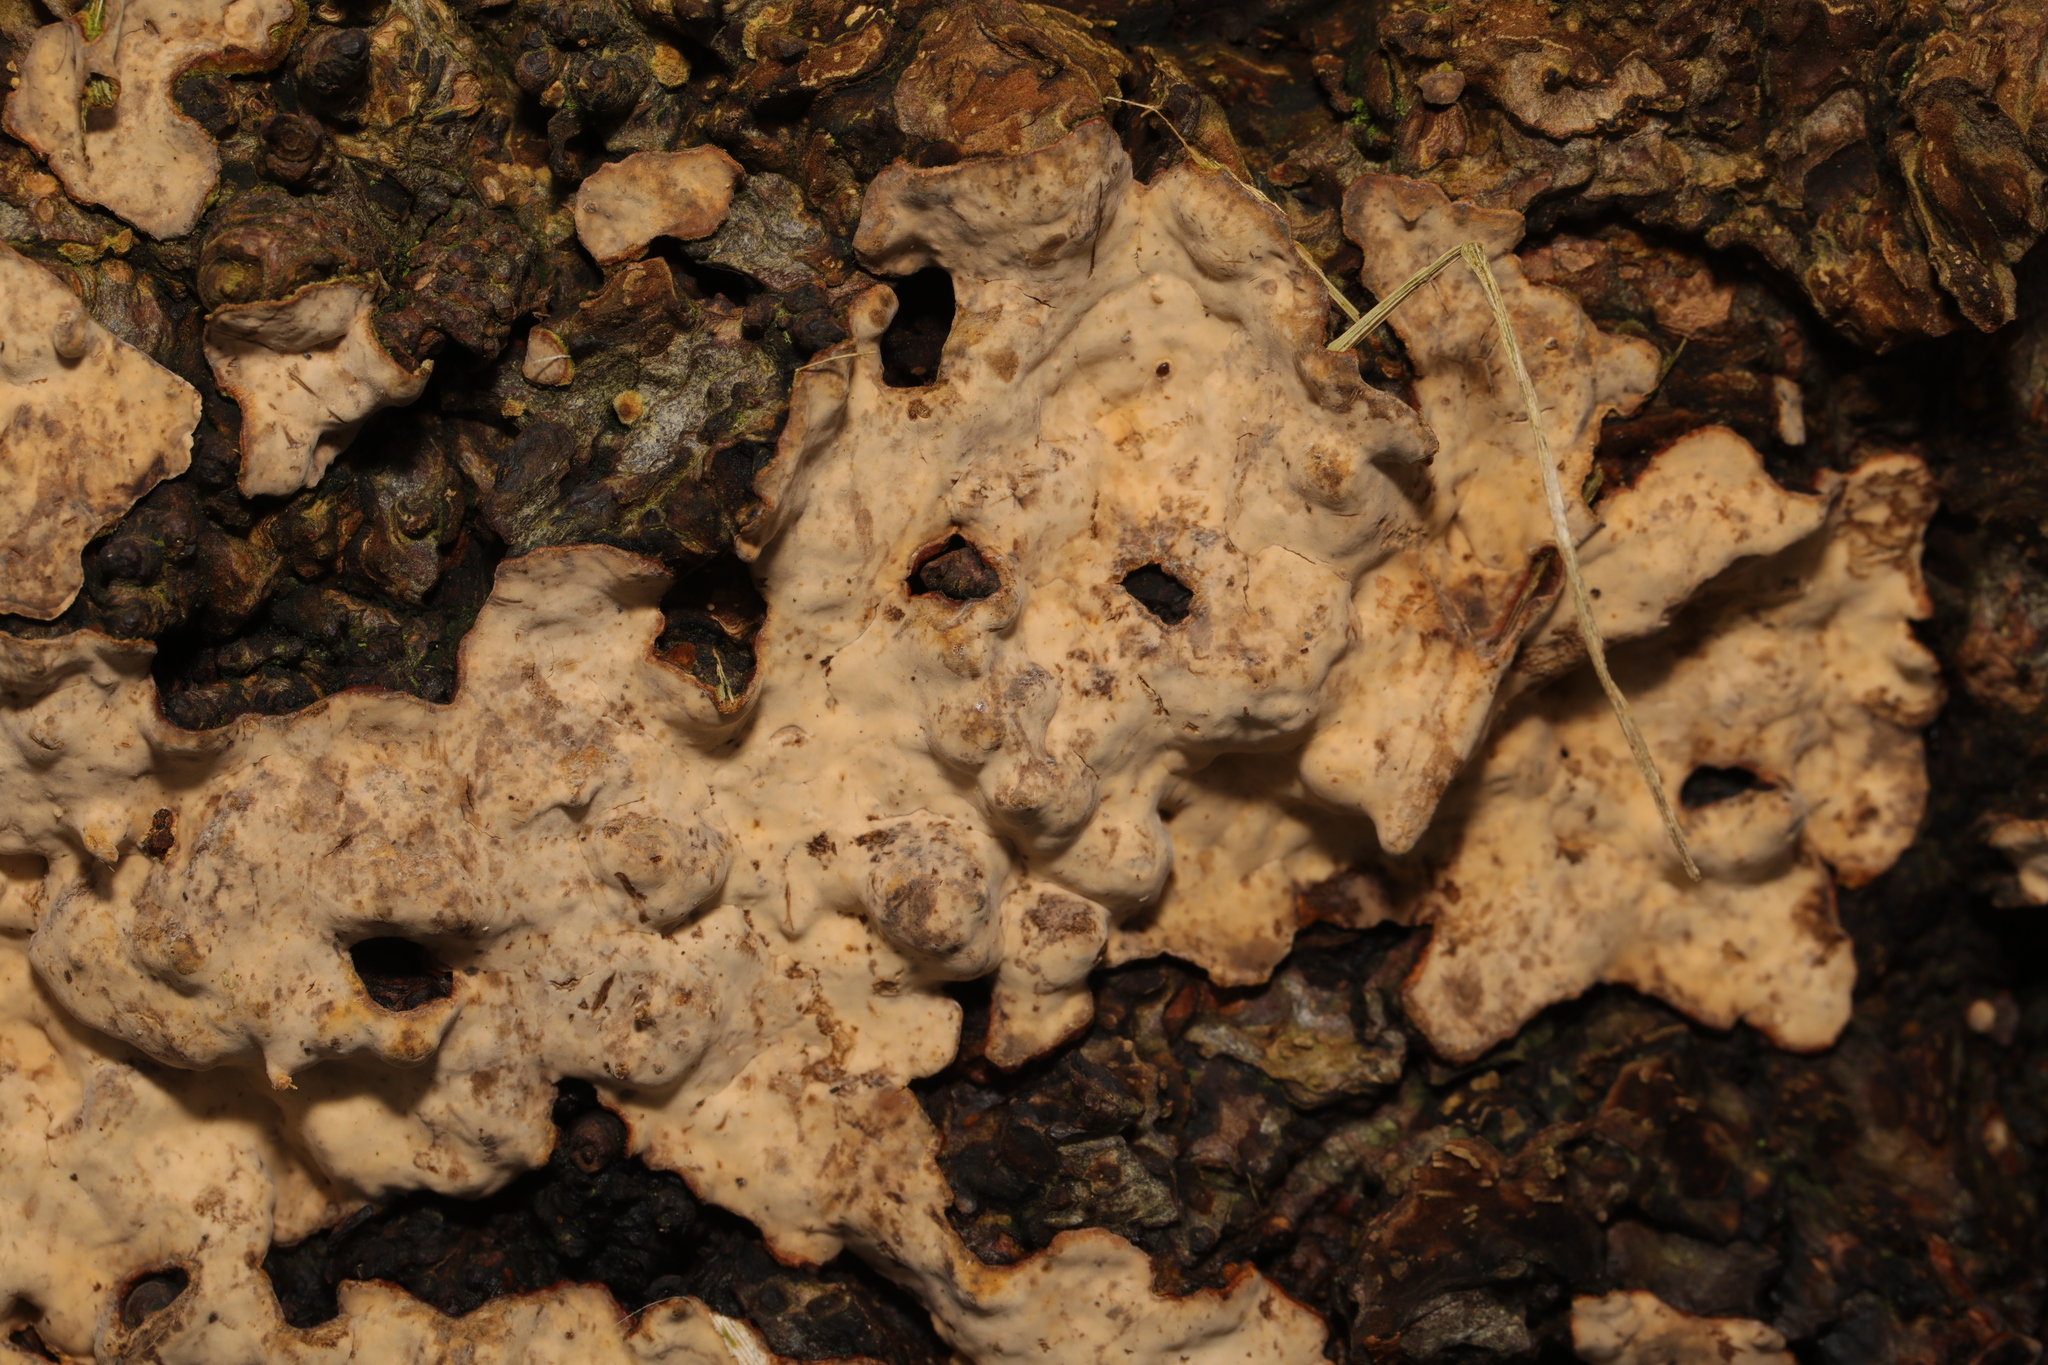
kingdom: Fungi
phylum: Basidiomycota
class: Agaricomycetes
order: Russulales
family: Stereaceae
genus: Stereum
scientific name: Stereum rugosum
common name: Bleeding broadleaf crust
